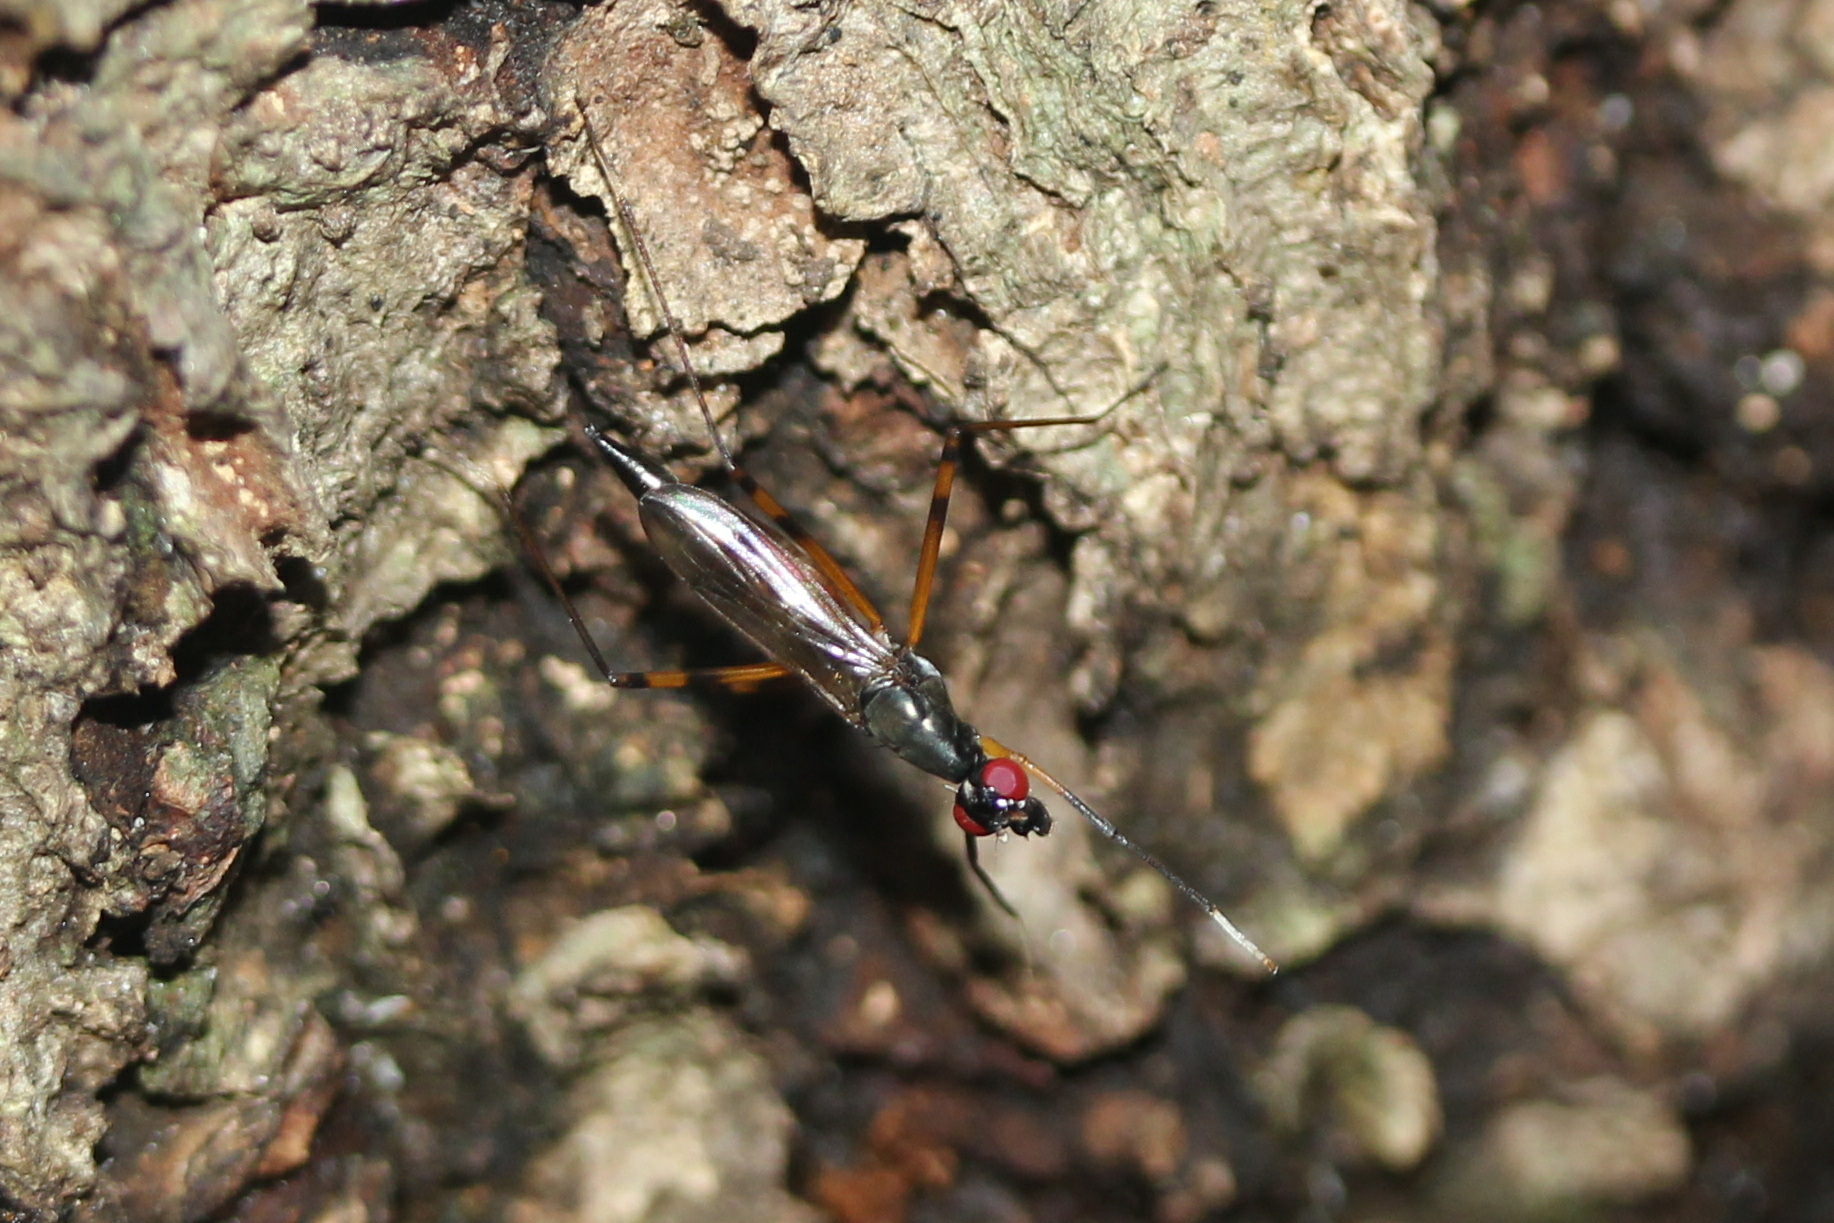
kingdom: Animalia
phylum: Arthropoda
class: Insecta
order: Diptera
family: Micropezidae
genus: Rainieria
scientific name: Rainieria antennaepes
